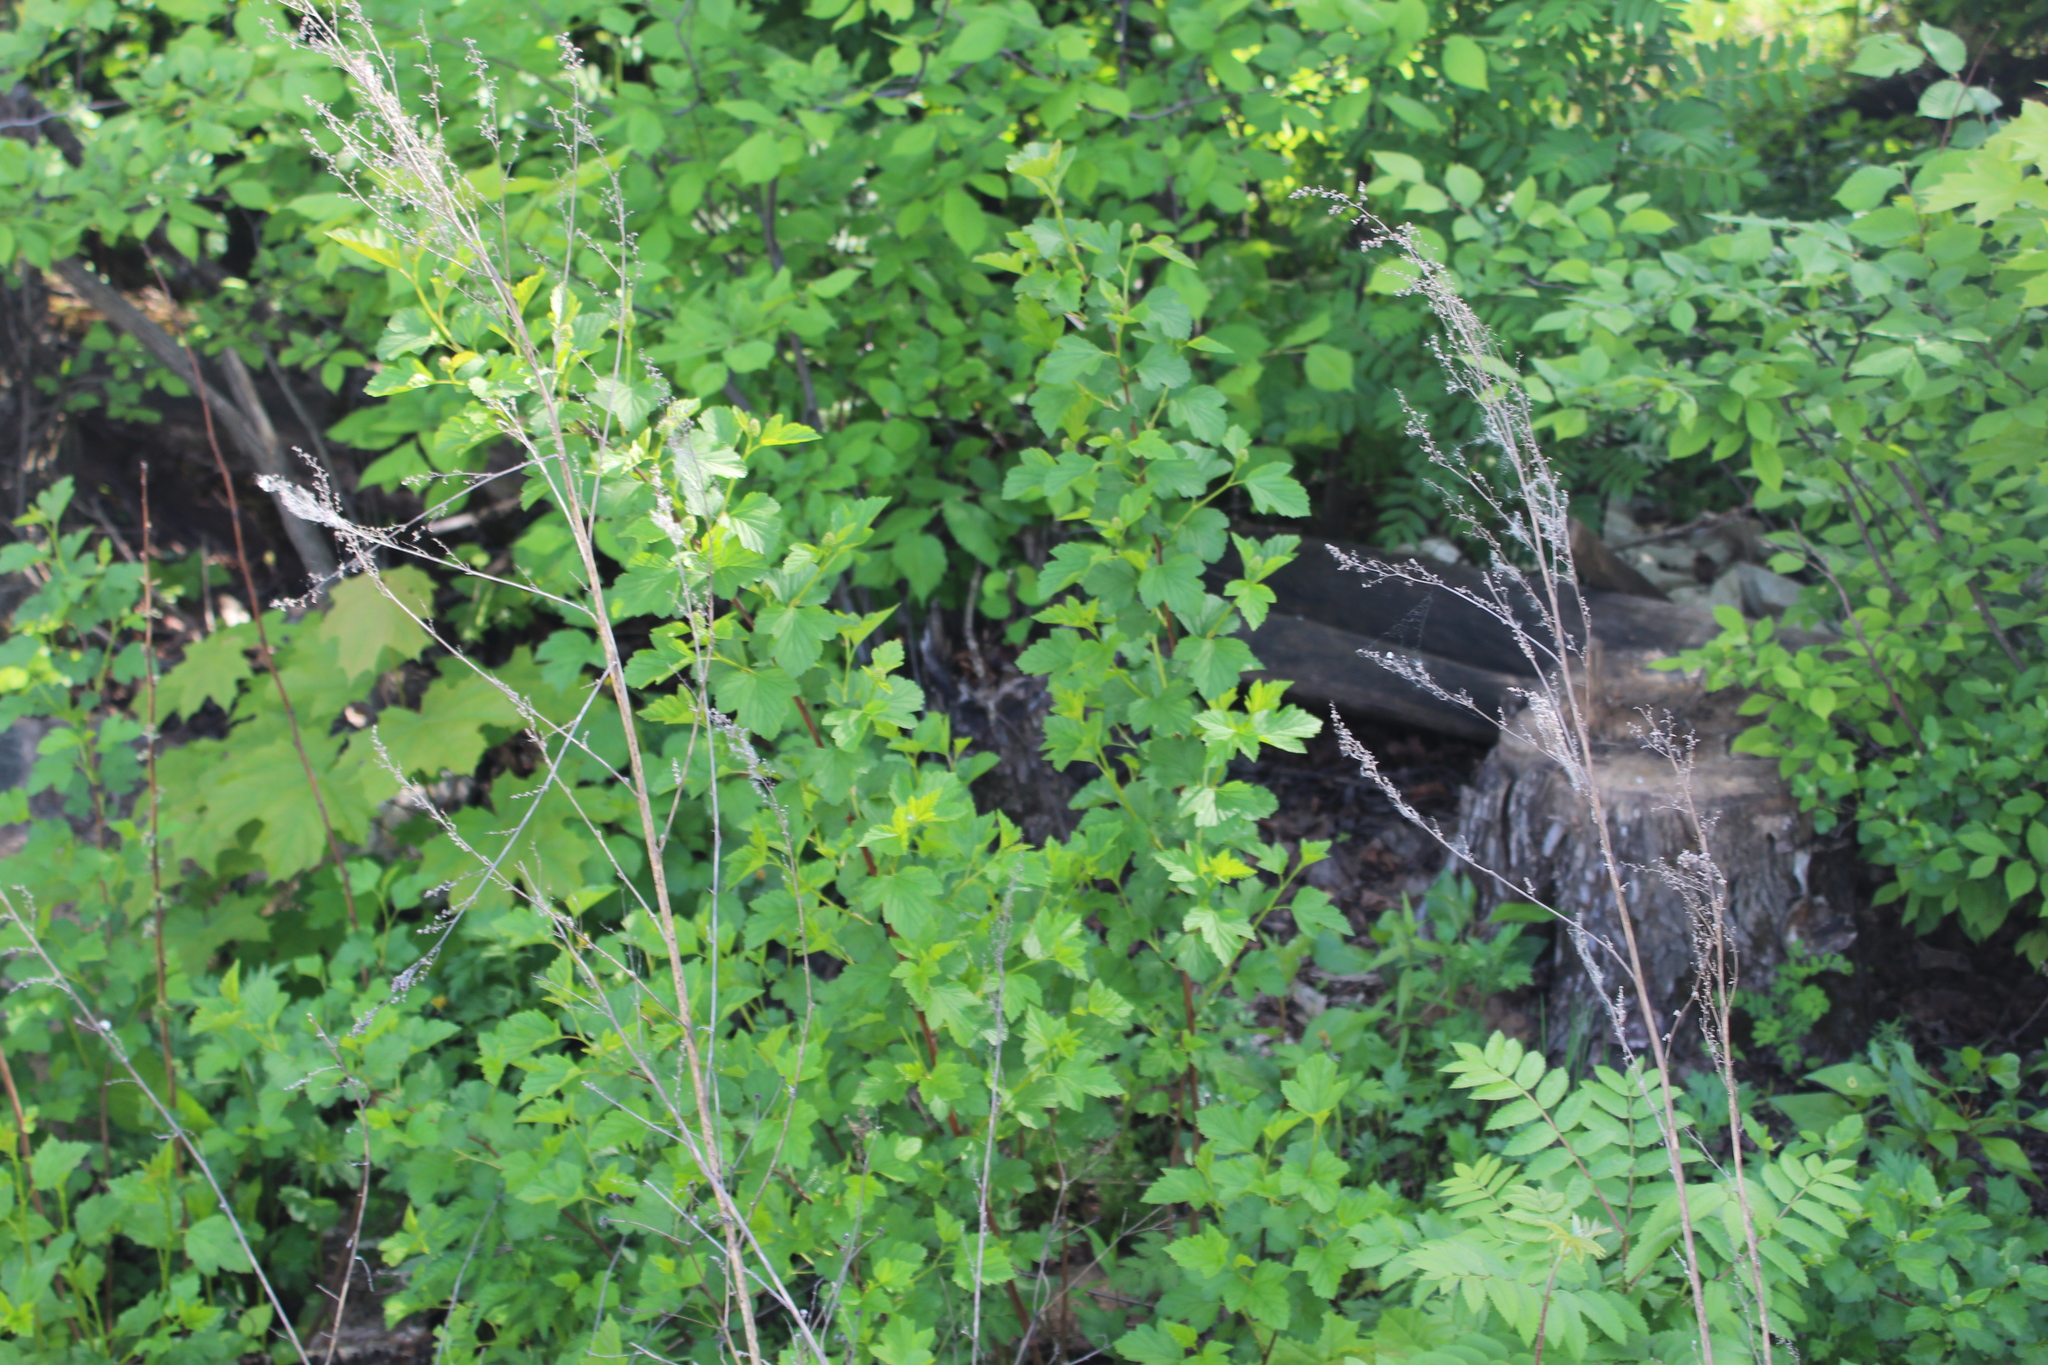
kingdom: Plantae
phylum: Tracheophyta
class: Magnoliopsida
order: Rosales
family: Rosaceae
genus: Physocarpus
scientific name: Physocarpus opulifolius
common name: Ninebark
